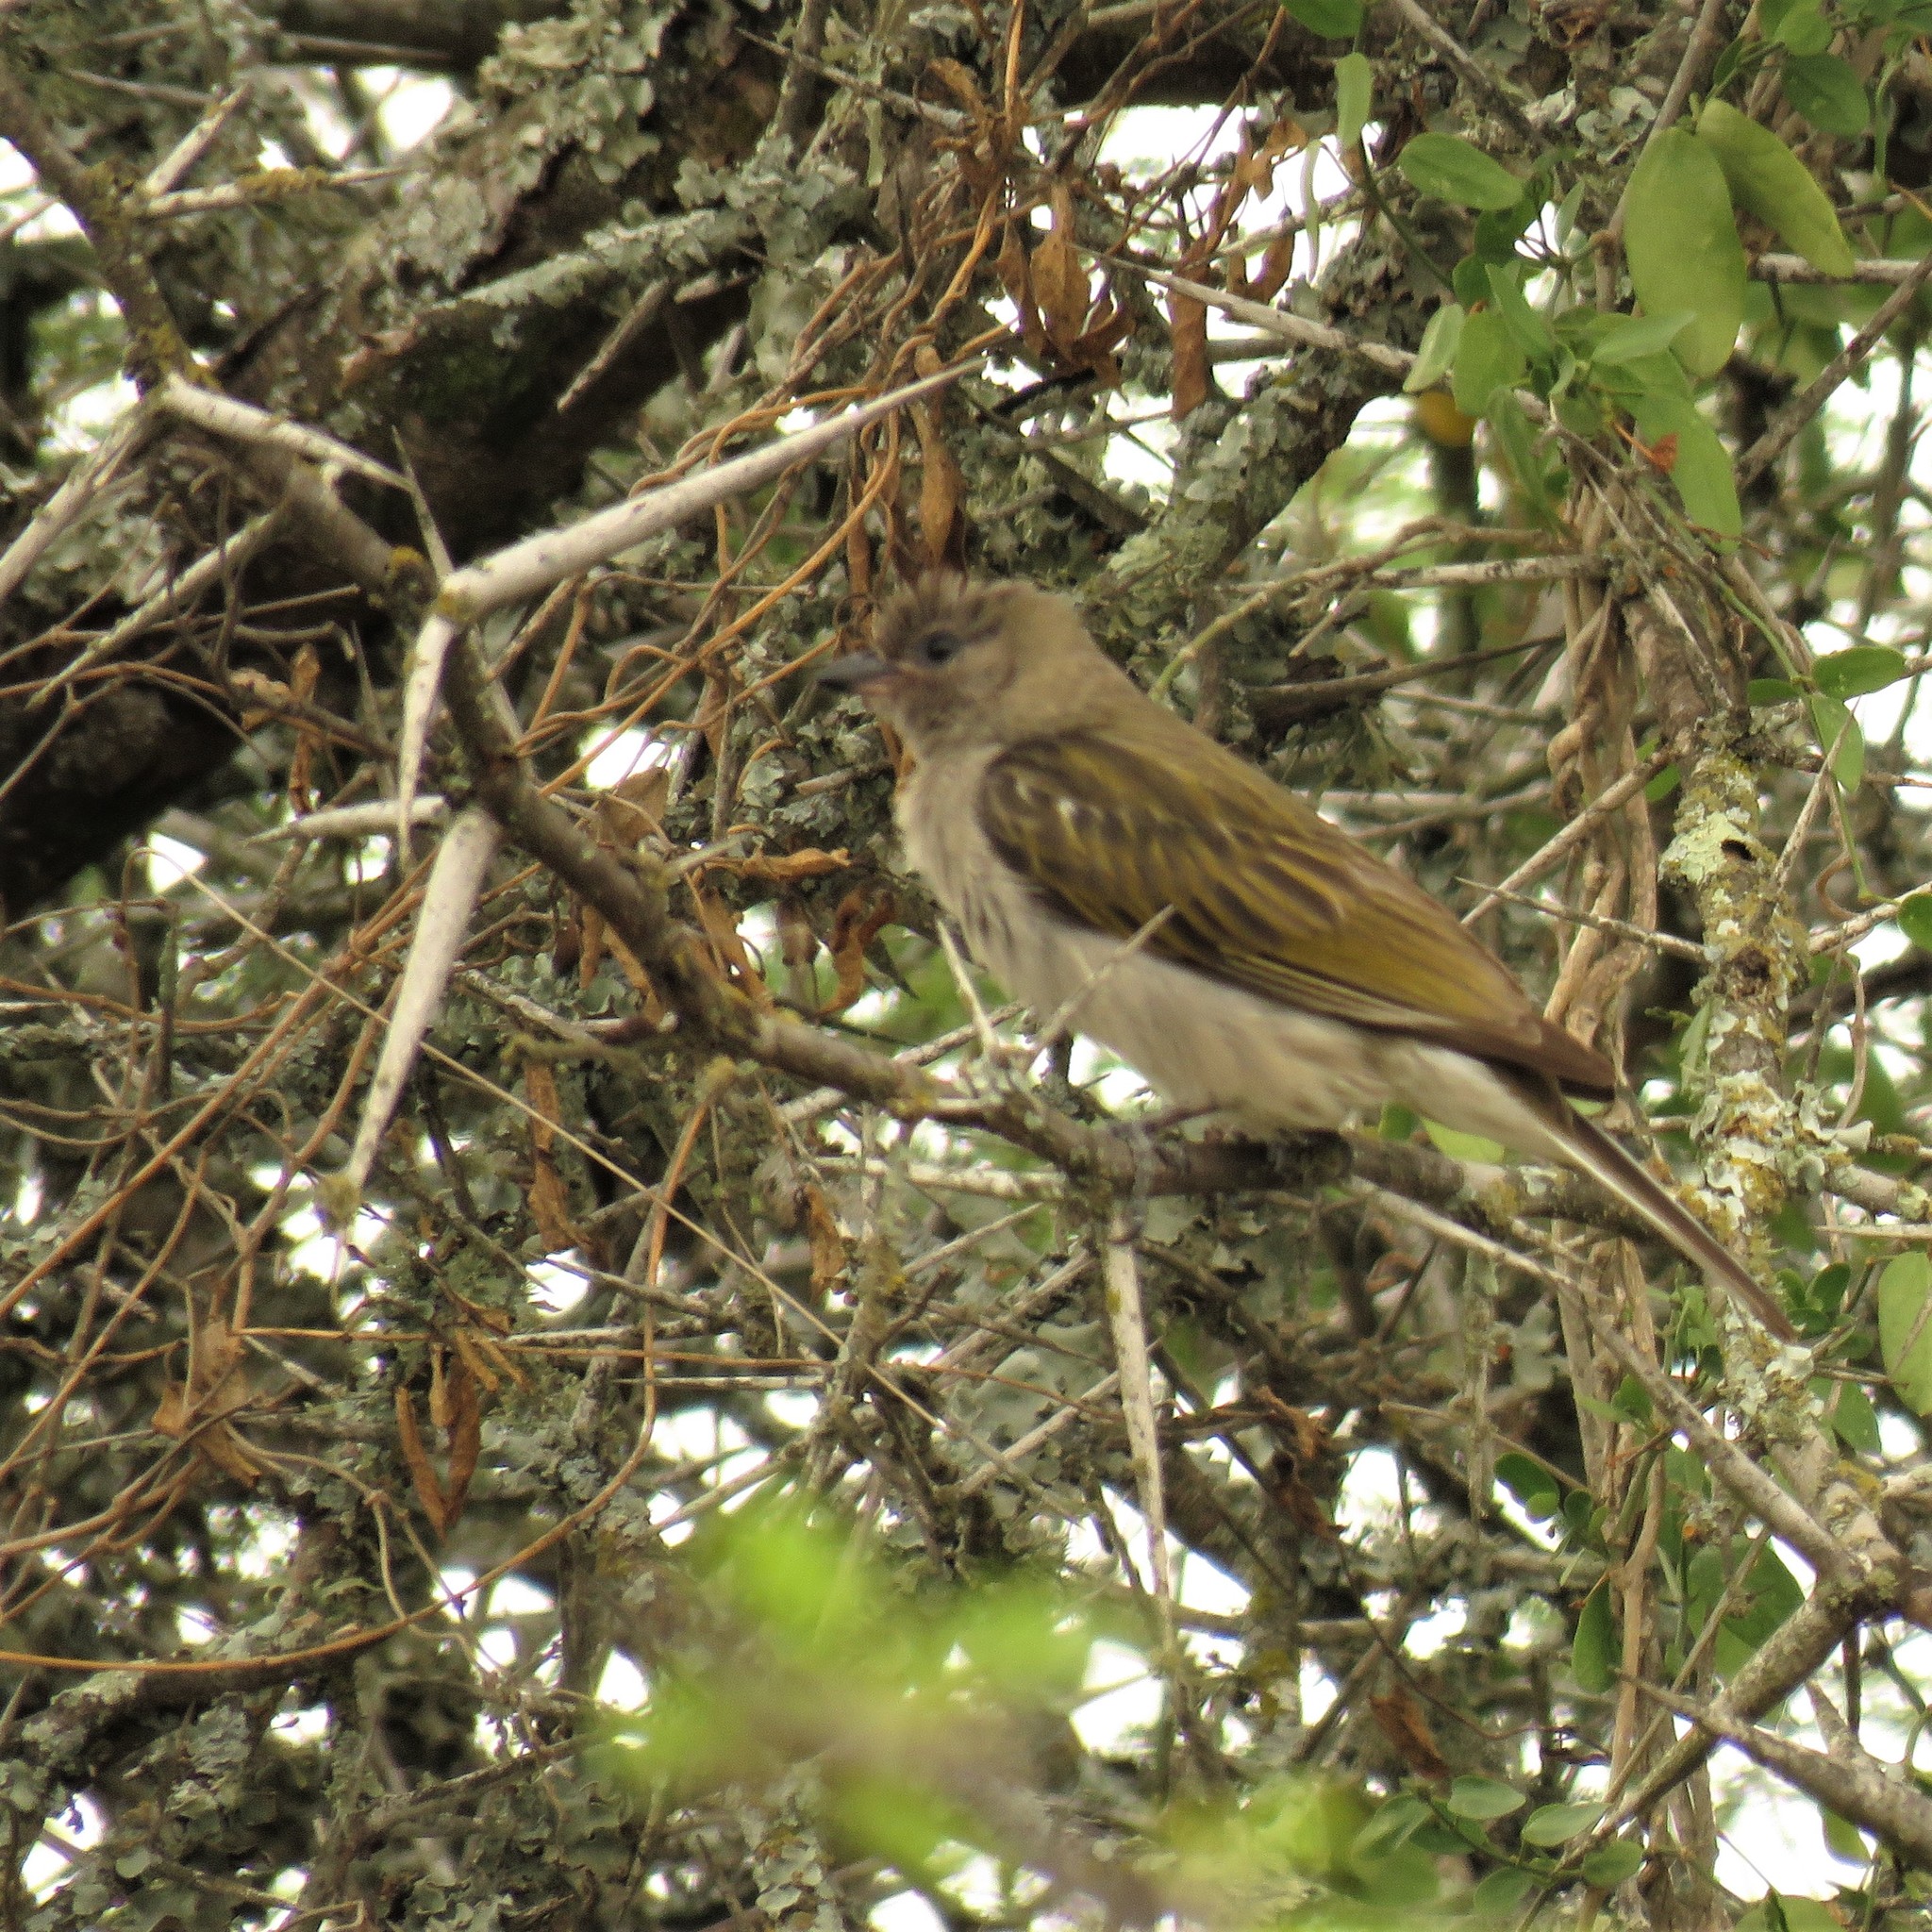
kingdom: Animalia
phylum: Chordata
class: Aves
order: Piciformes
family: Indicatoridae
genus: Indicator
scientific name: Indicator minor
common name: Lesser honeyguide
